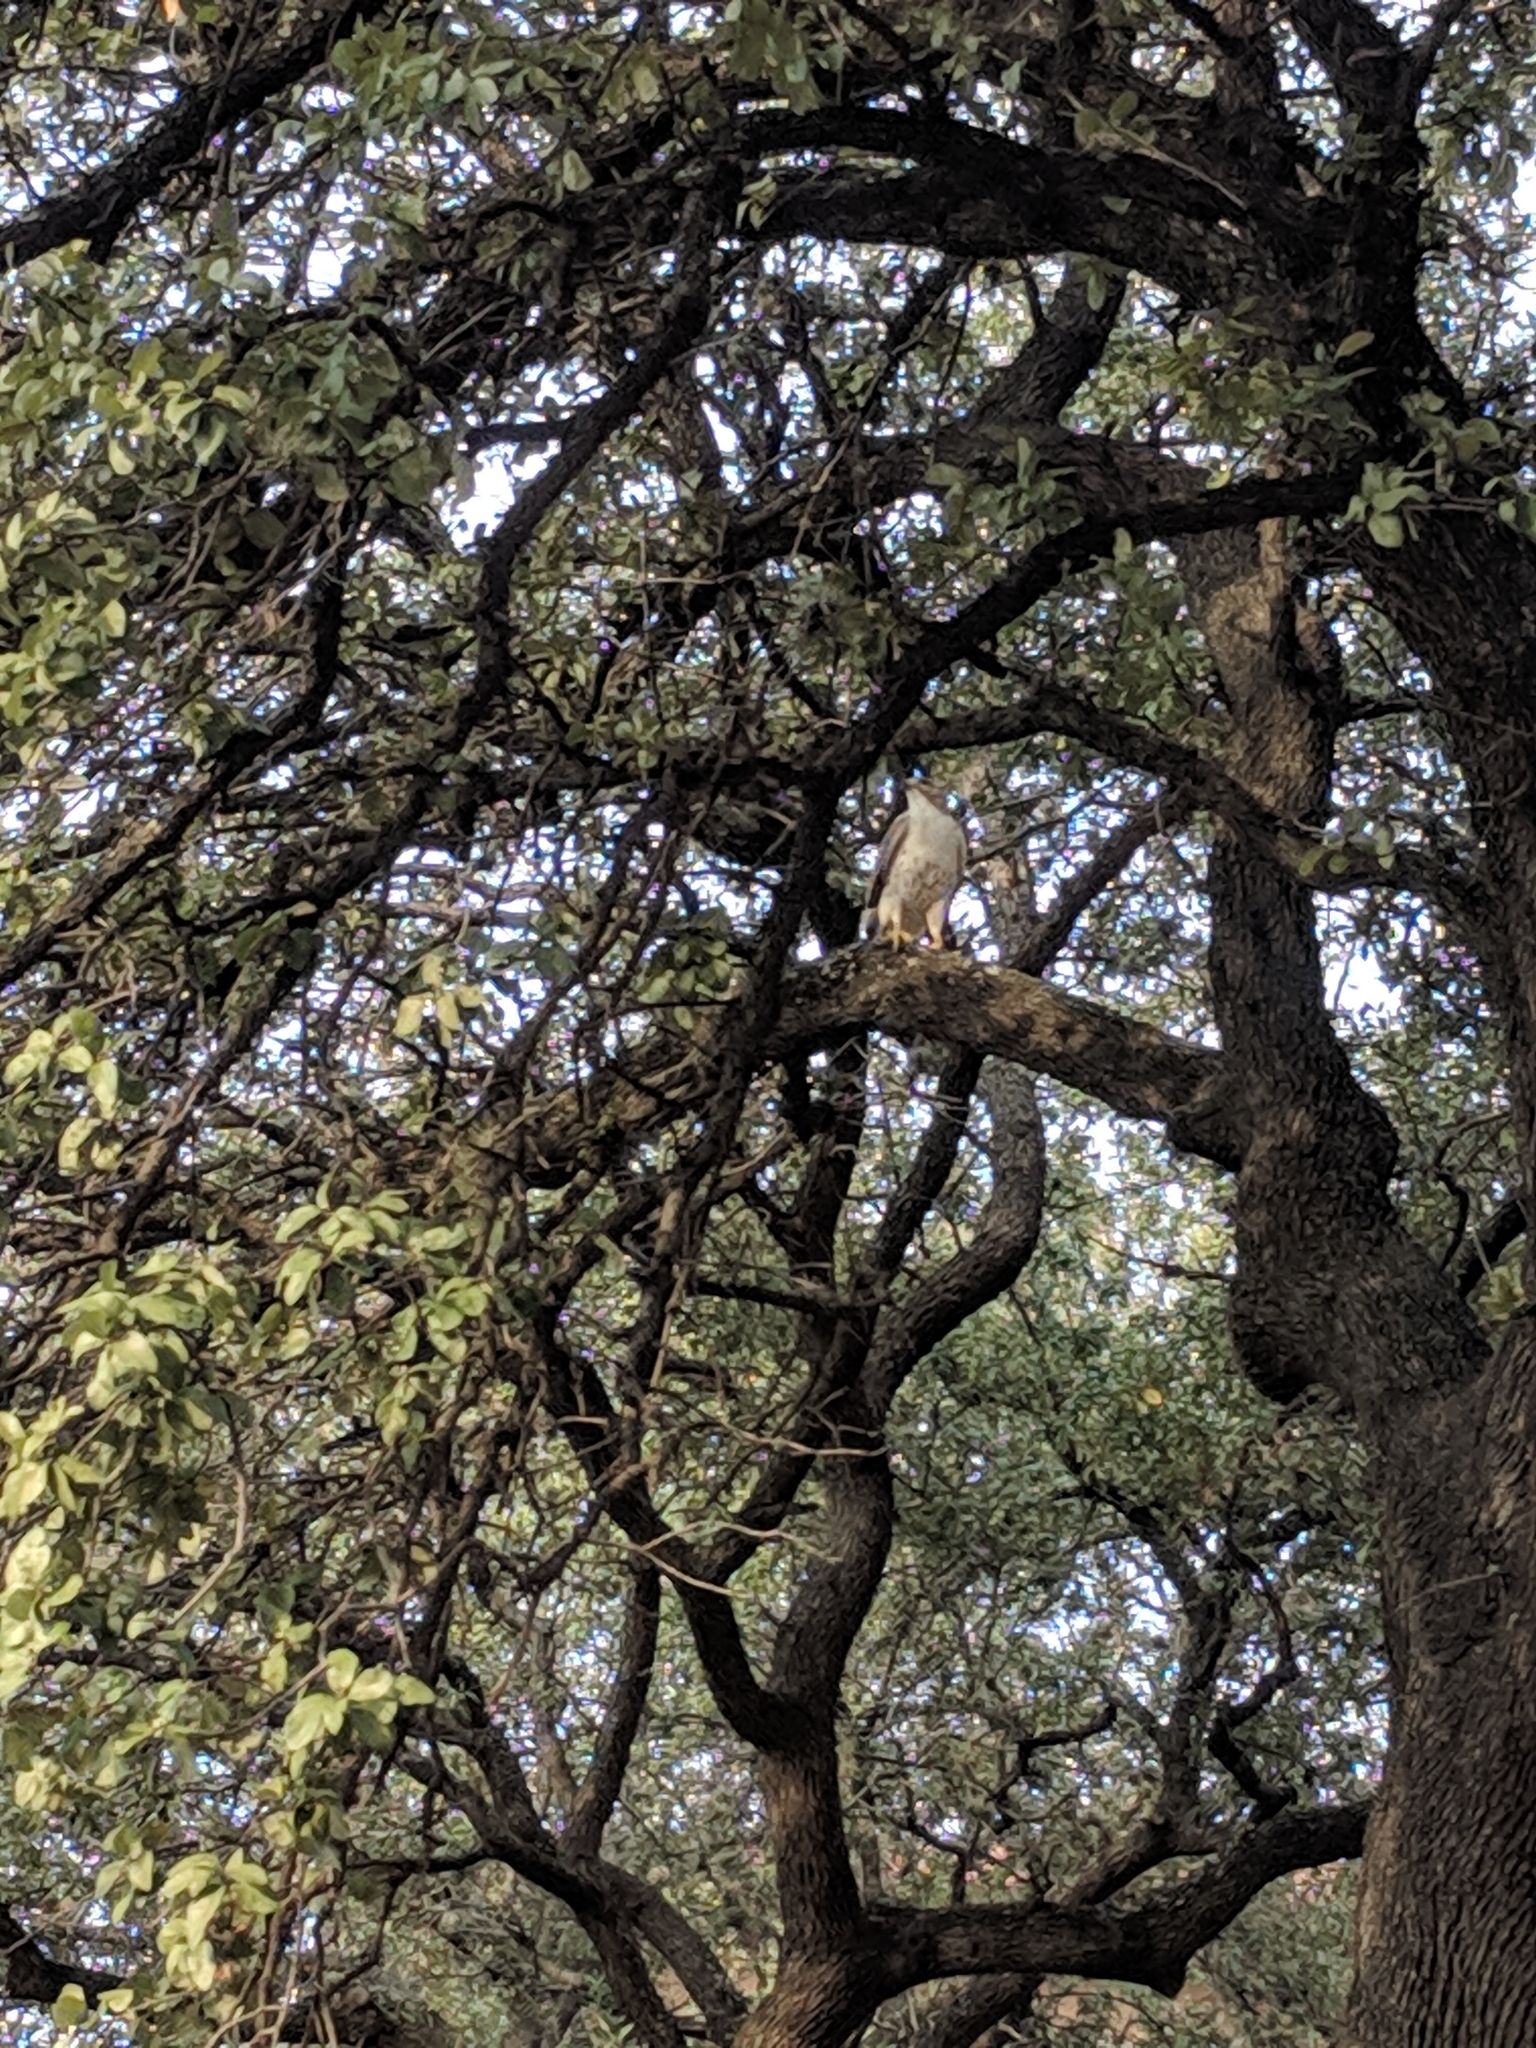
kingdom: Animalia
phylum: Chordata
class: Aves
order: Accipitriformes
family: Accipitridae
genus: Buteo
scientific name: Buteo jamaicensis
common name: Red-tailed hawk
